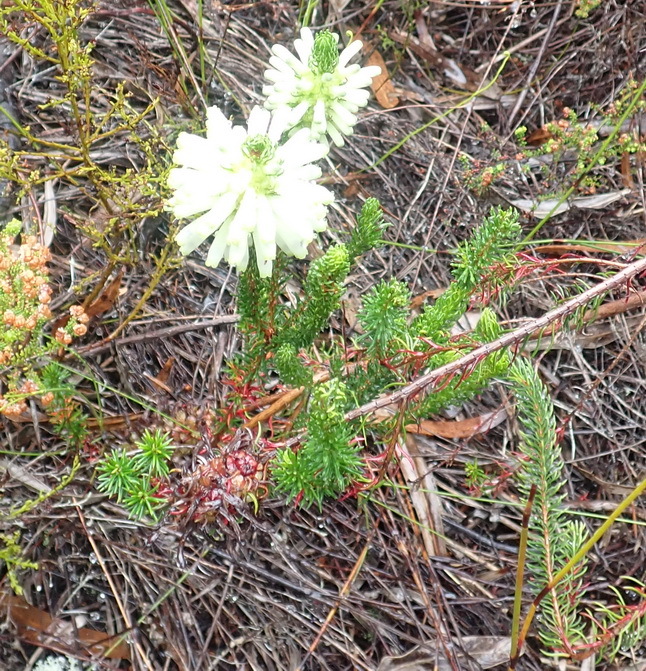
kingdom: Plantae
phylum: Tracheophyta
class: Magnoliopsida
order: Ericales
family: Ericaceae
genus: Erica
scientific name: Erica sessiliflora
